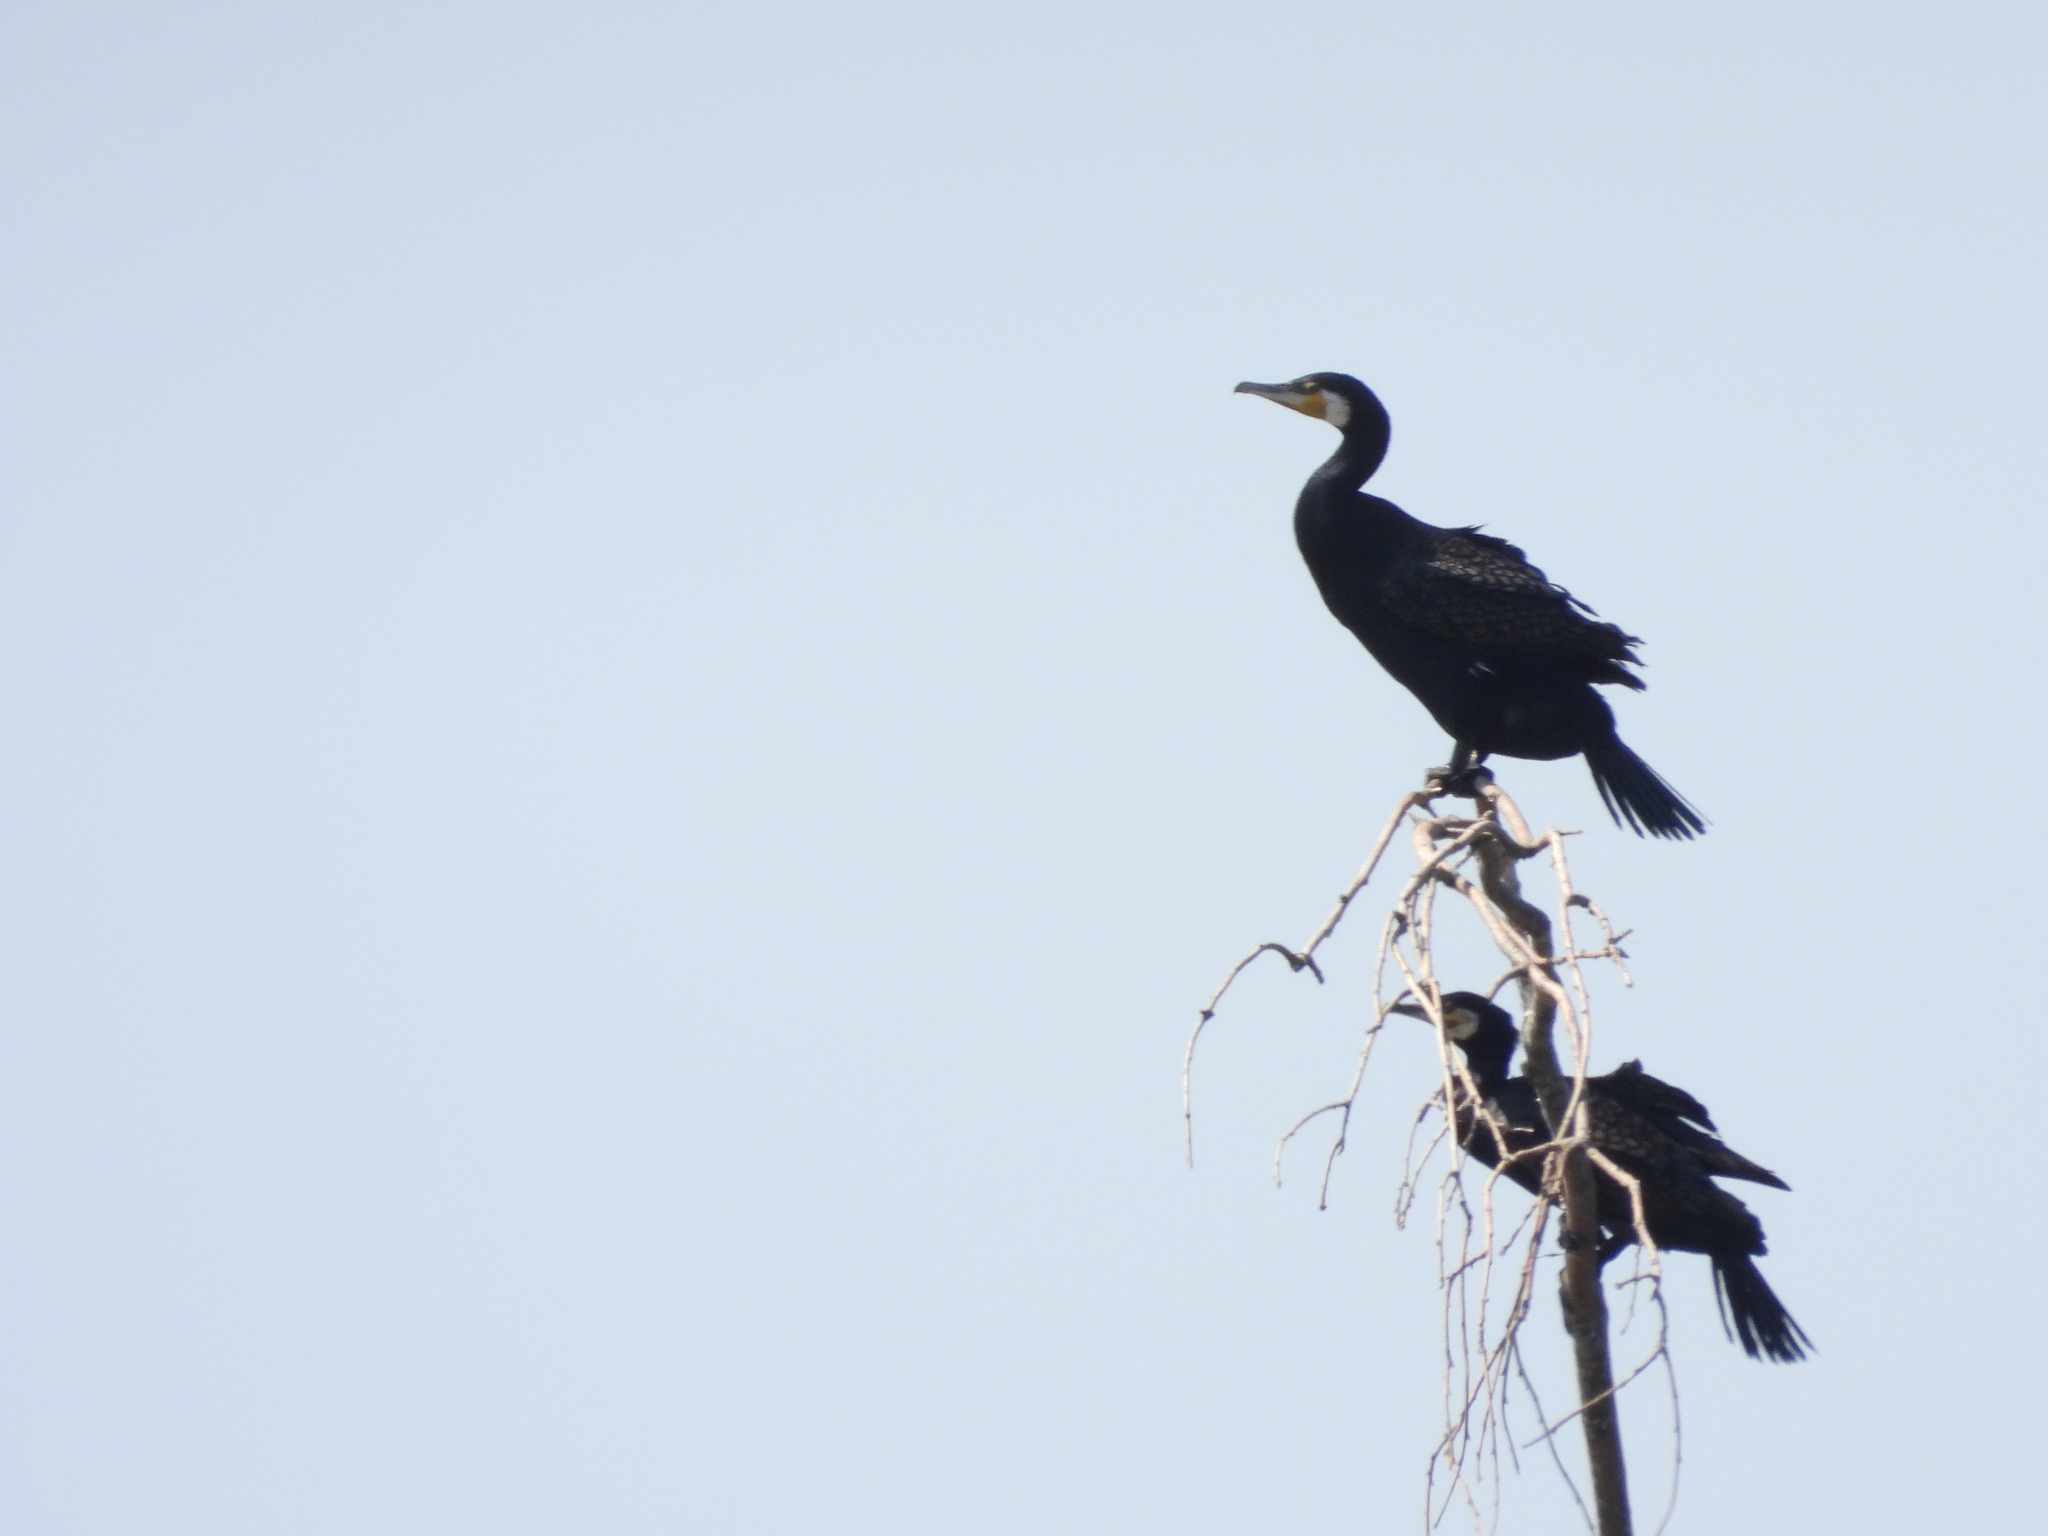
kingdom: Animalia
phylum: Chordata
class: Aves
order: Suliformes
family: Phalacrocoracidae
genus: Phalacrocorax
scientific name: Phalacrocorax carbo
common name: Great cormorant
